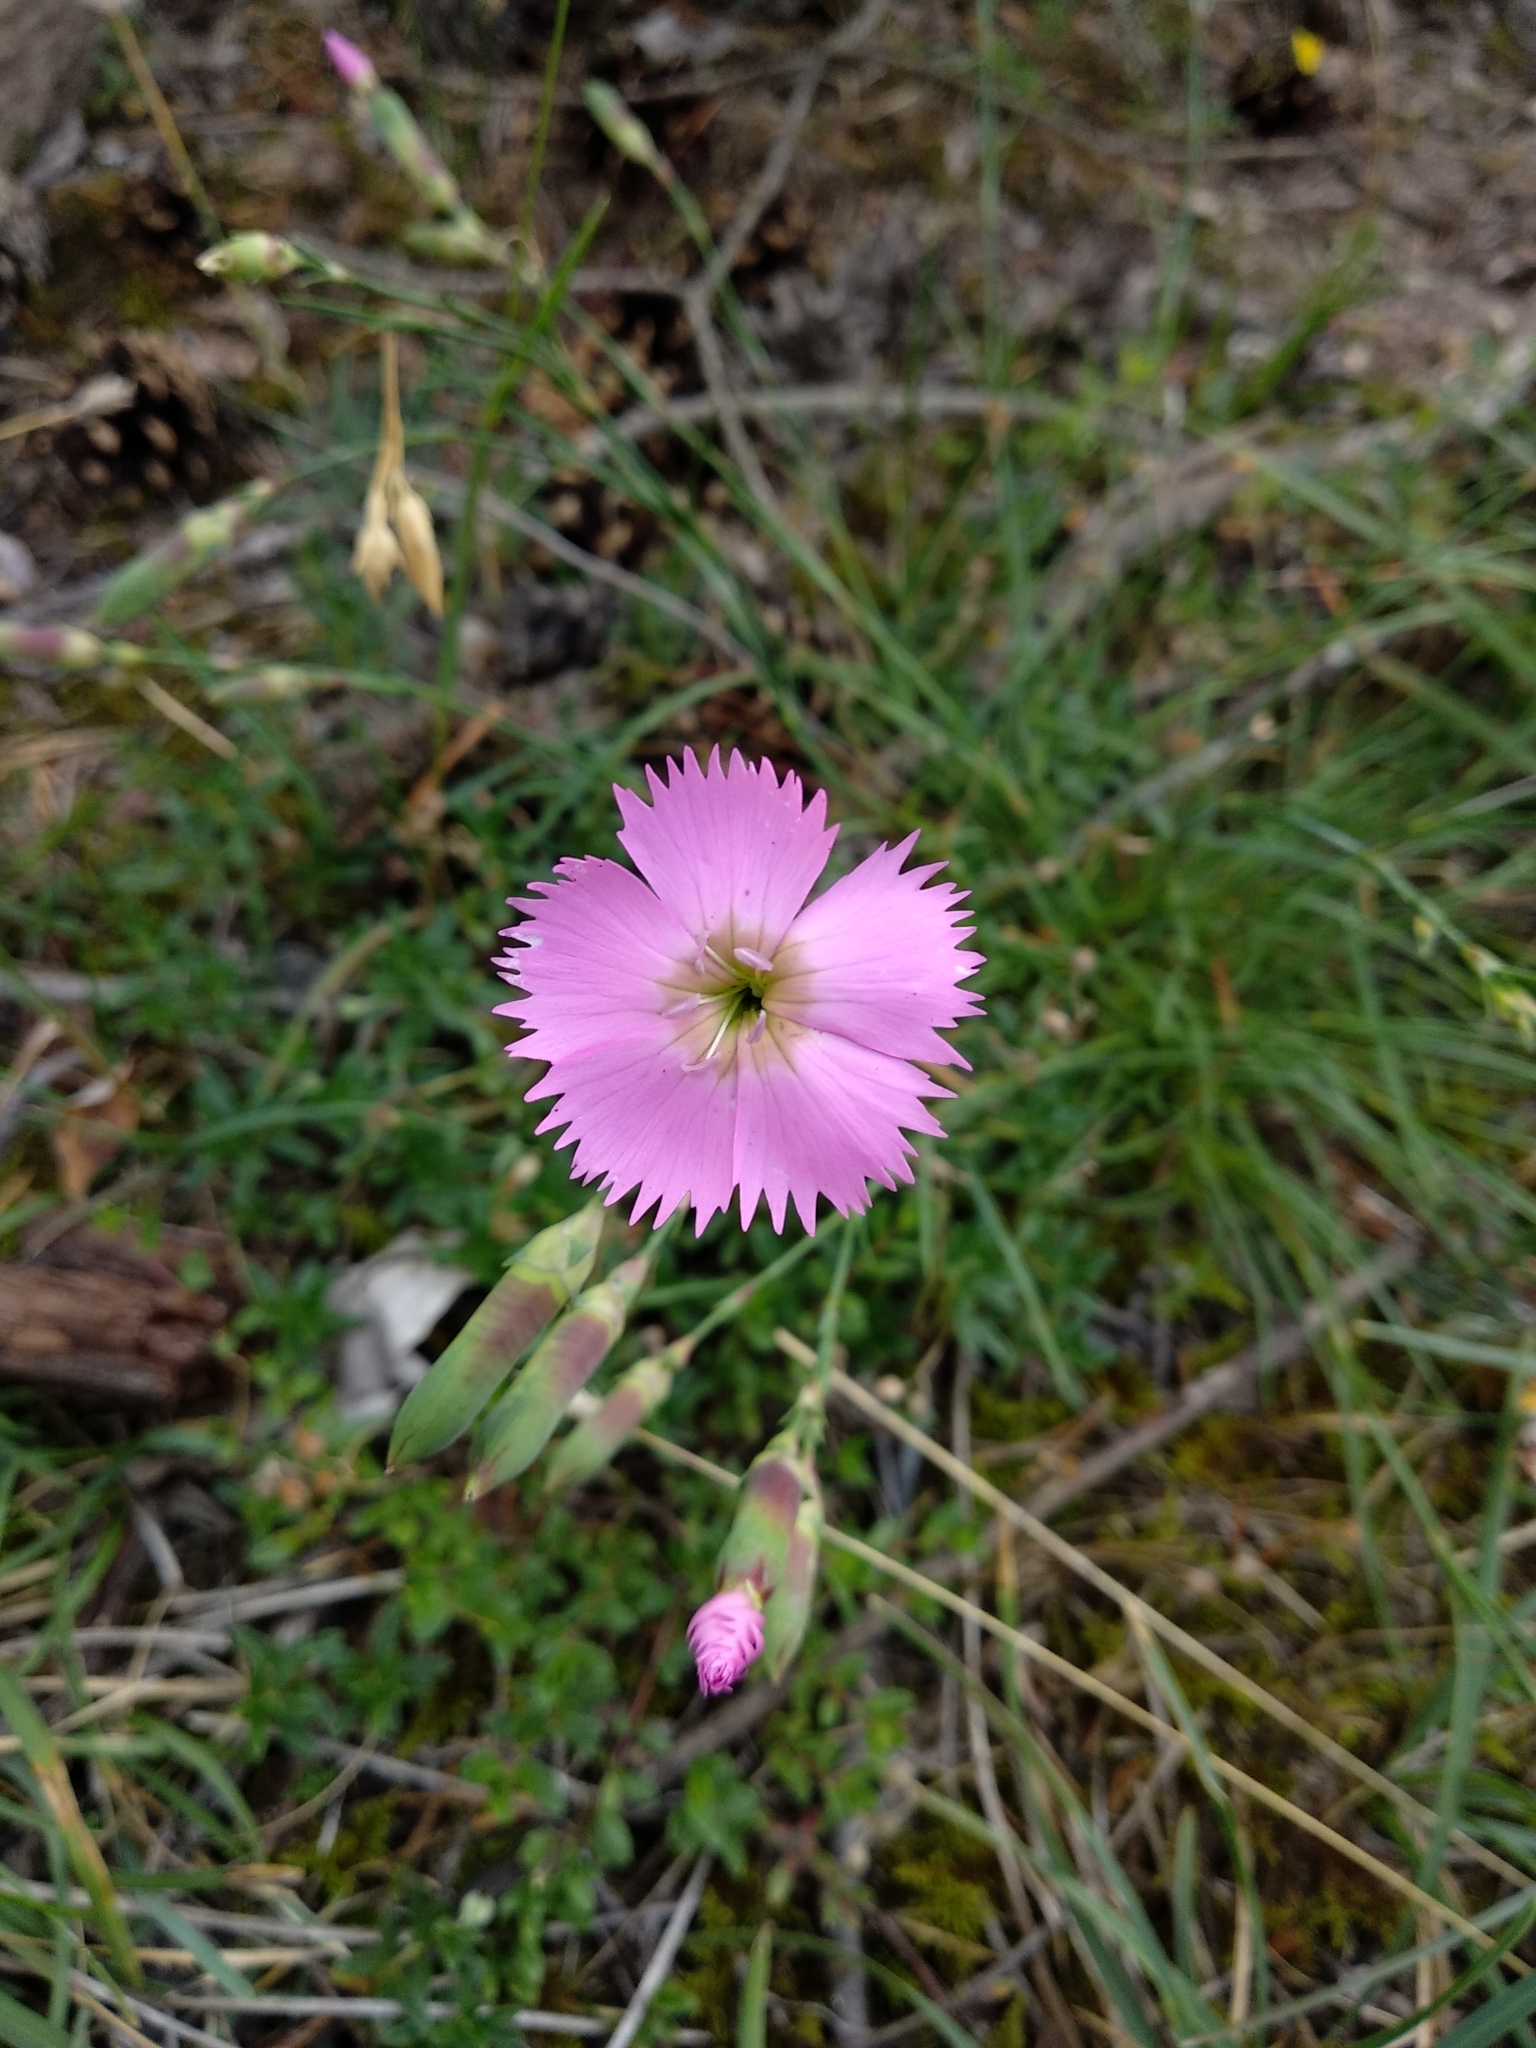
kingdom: Plantae
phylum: Tracheophyta
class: Magnoliopsida
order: Caryophyllales
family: Caryophyllaceae
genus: Dianthus
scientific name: Dianthus sylvestris
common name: Wood pink
